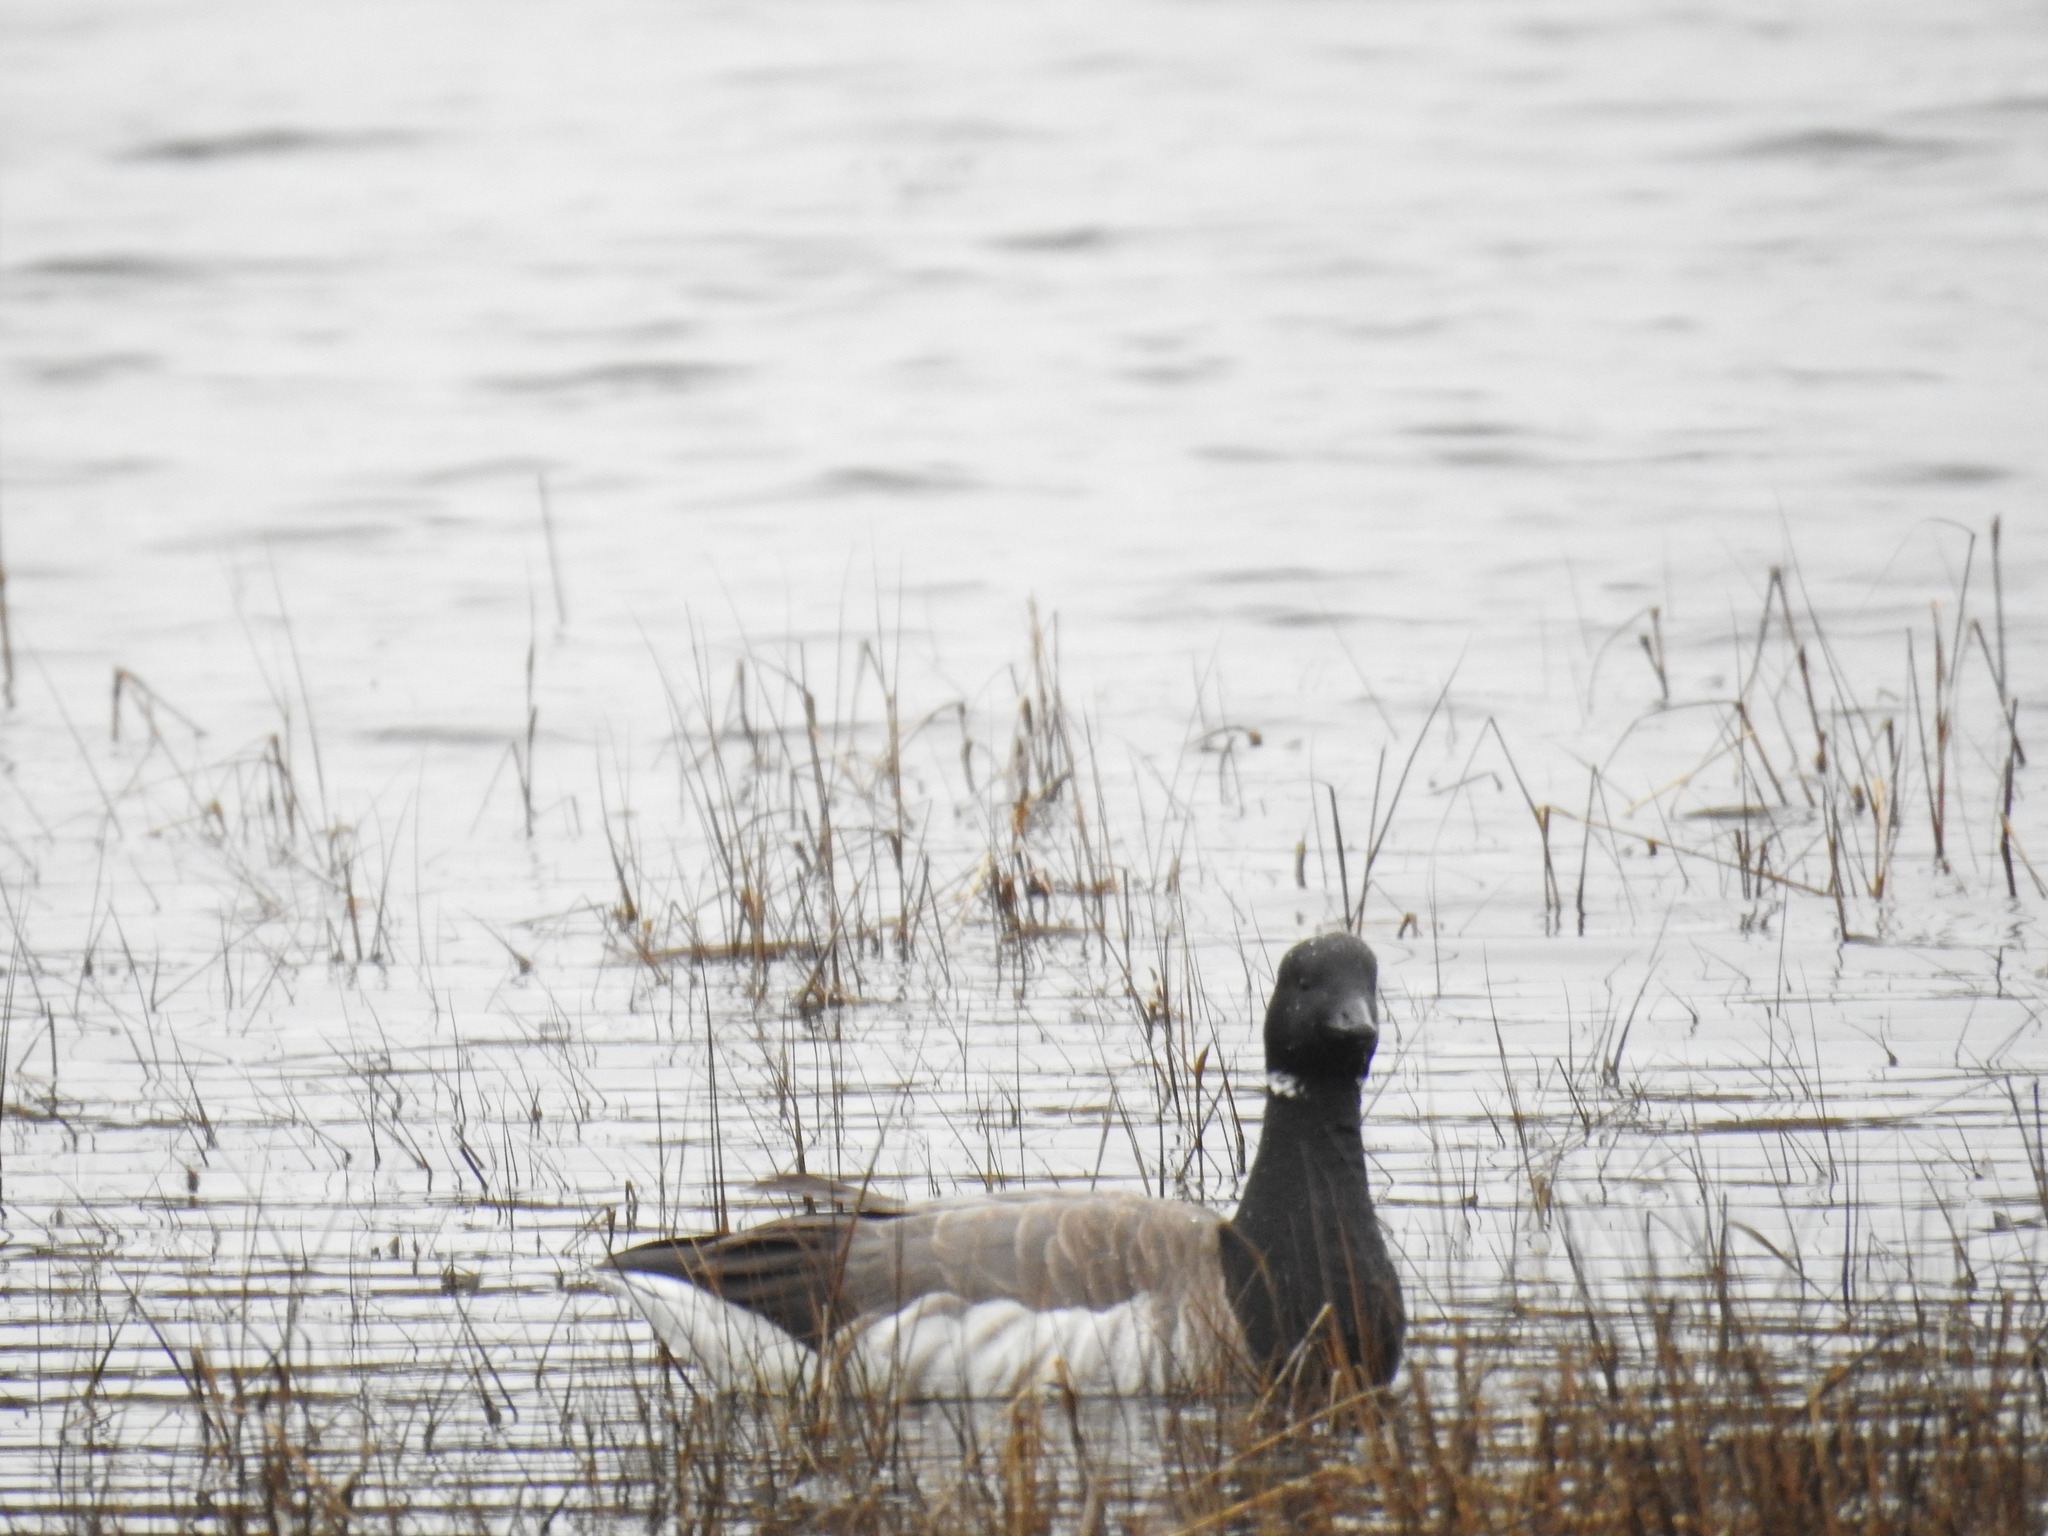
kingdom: Animalia
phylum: Chordata
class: Aves
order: Anseriformes
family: Anatidae
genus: Branta
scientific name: Branta bernicla
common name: Brant goose
